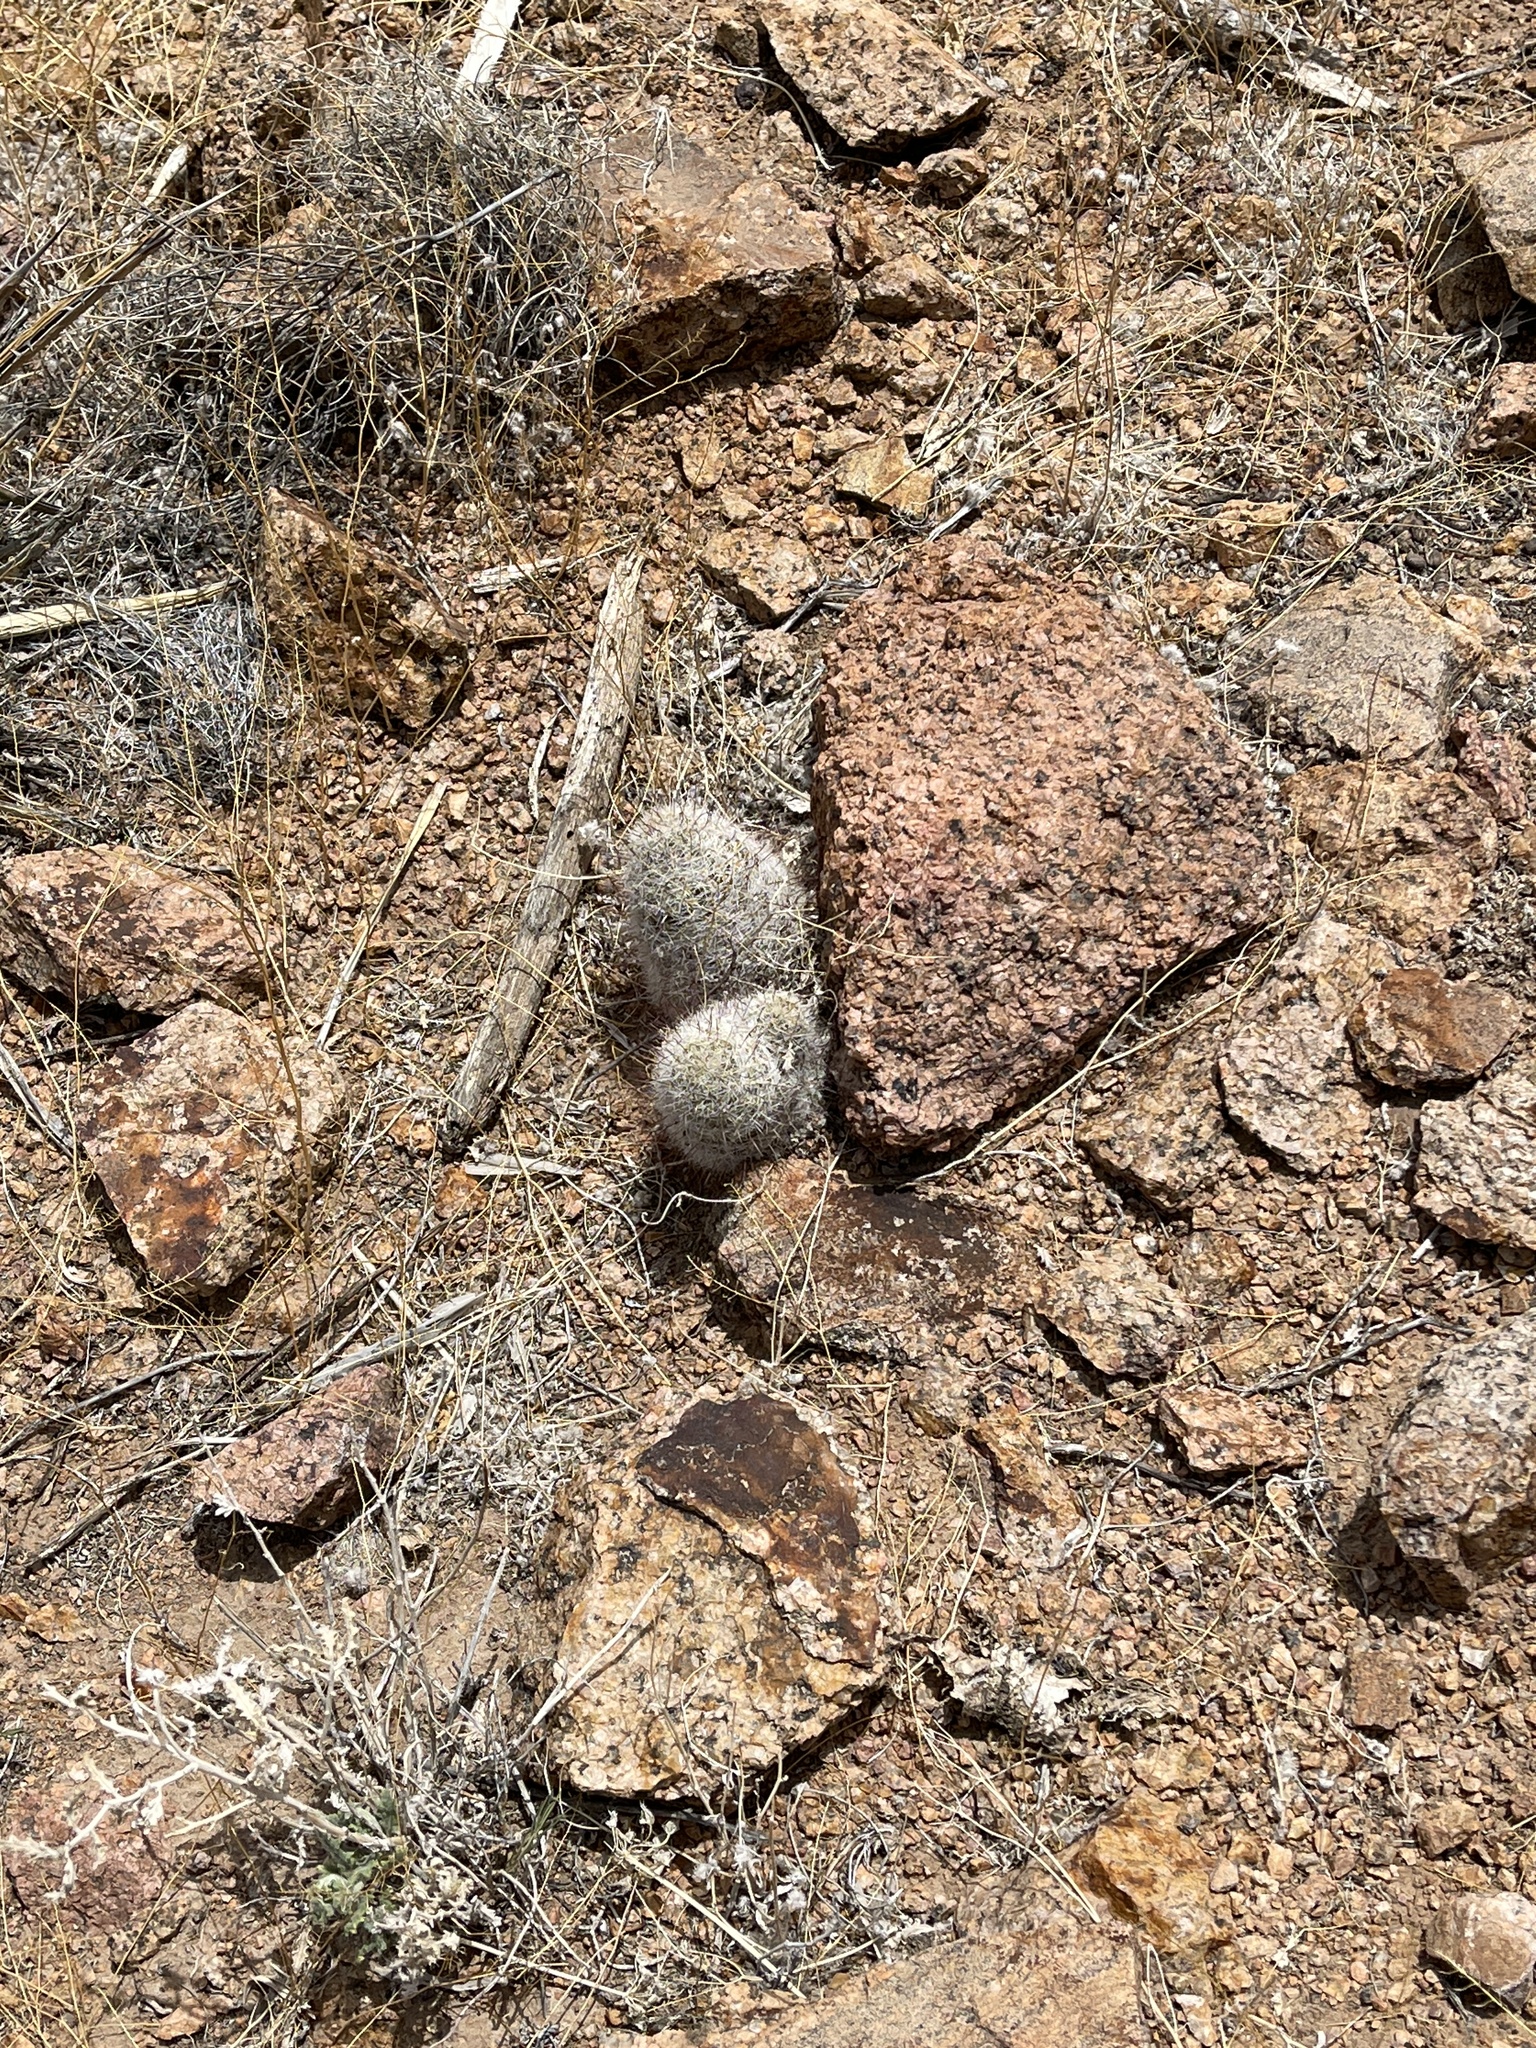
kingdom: Plantae
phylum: Tracheophyta
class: Magnoliopsida
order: Caryophyllales
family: Cactaceae
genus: Cochemiea
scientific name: Cochemiea grahamii
